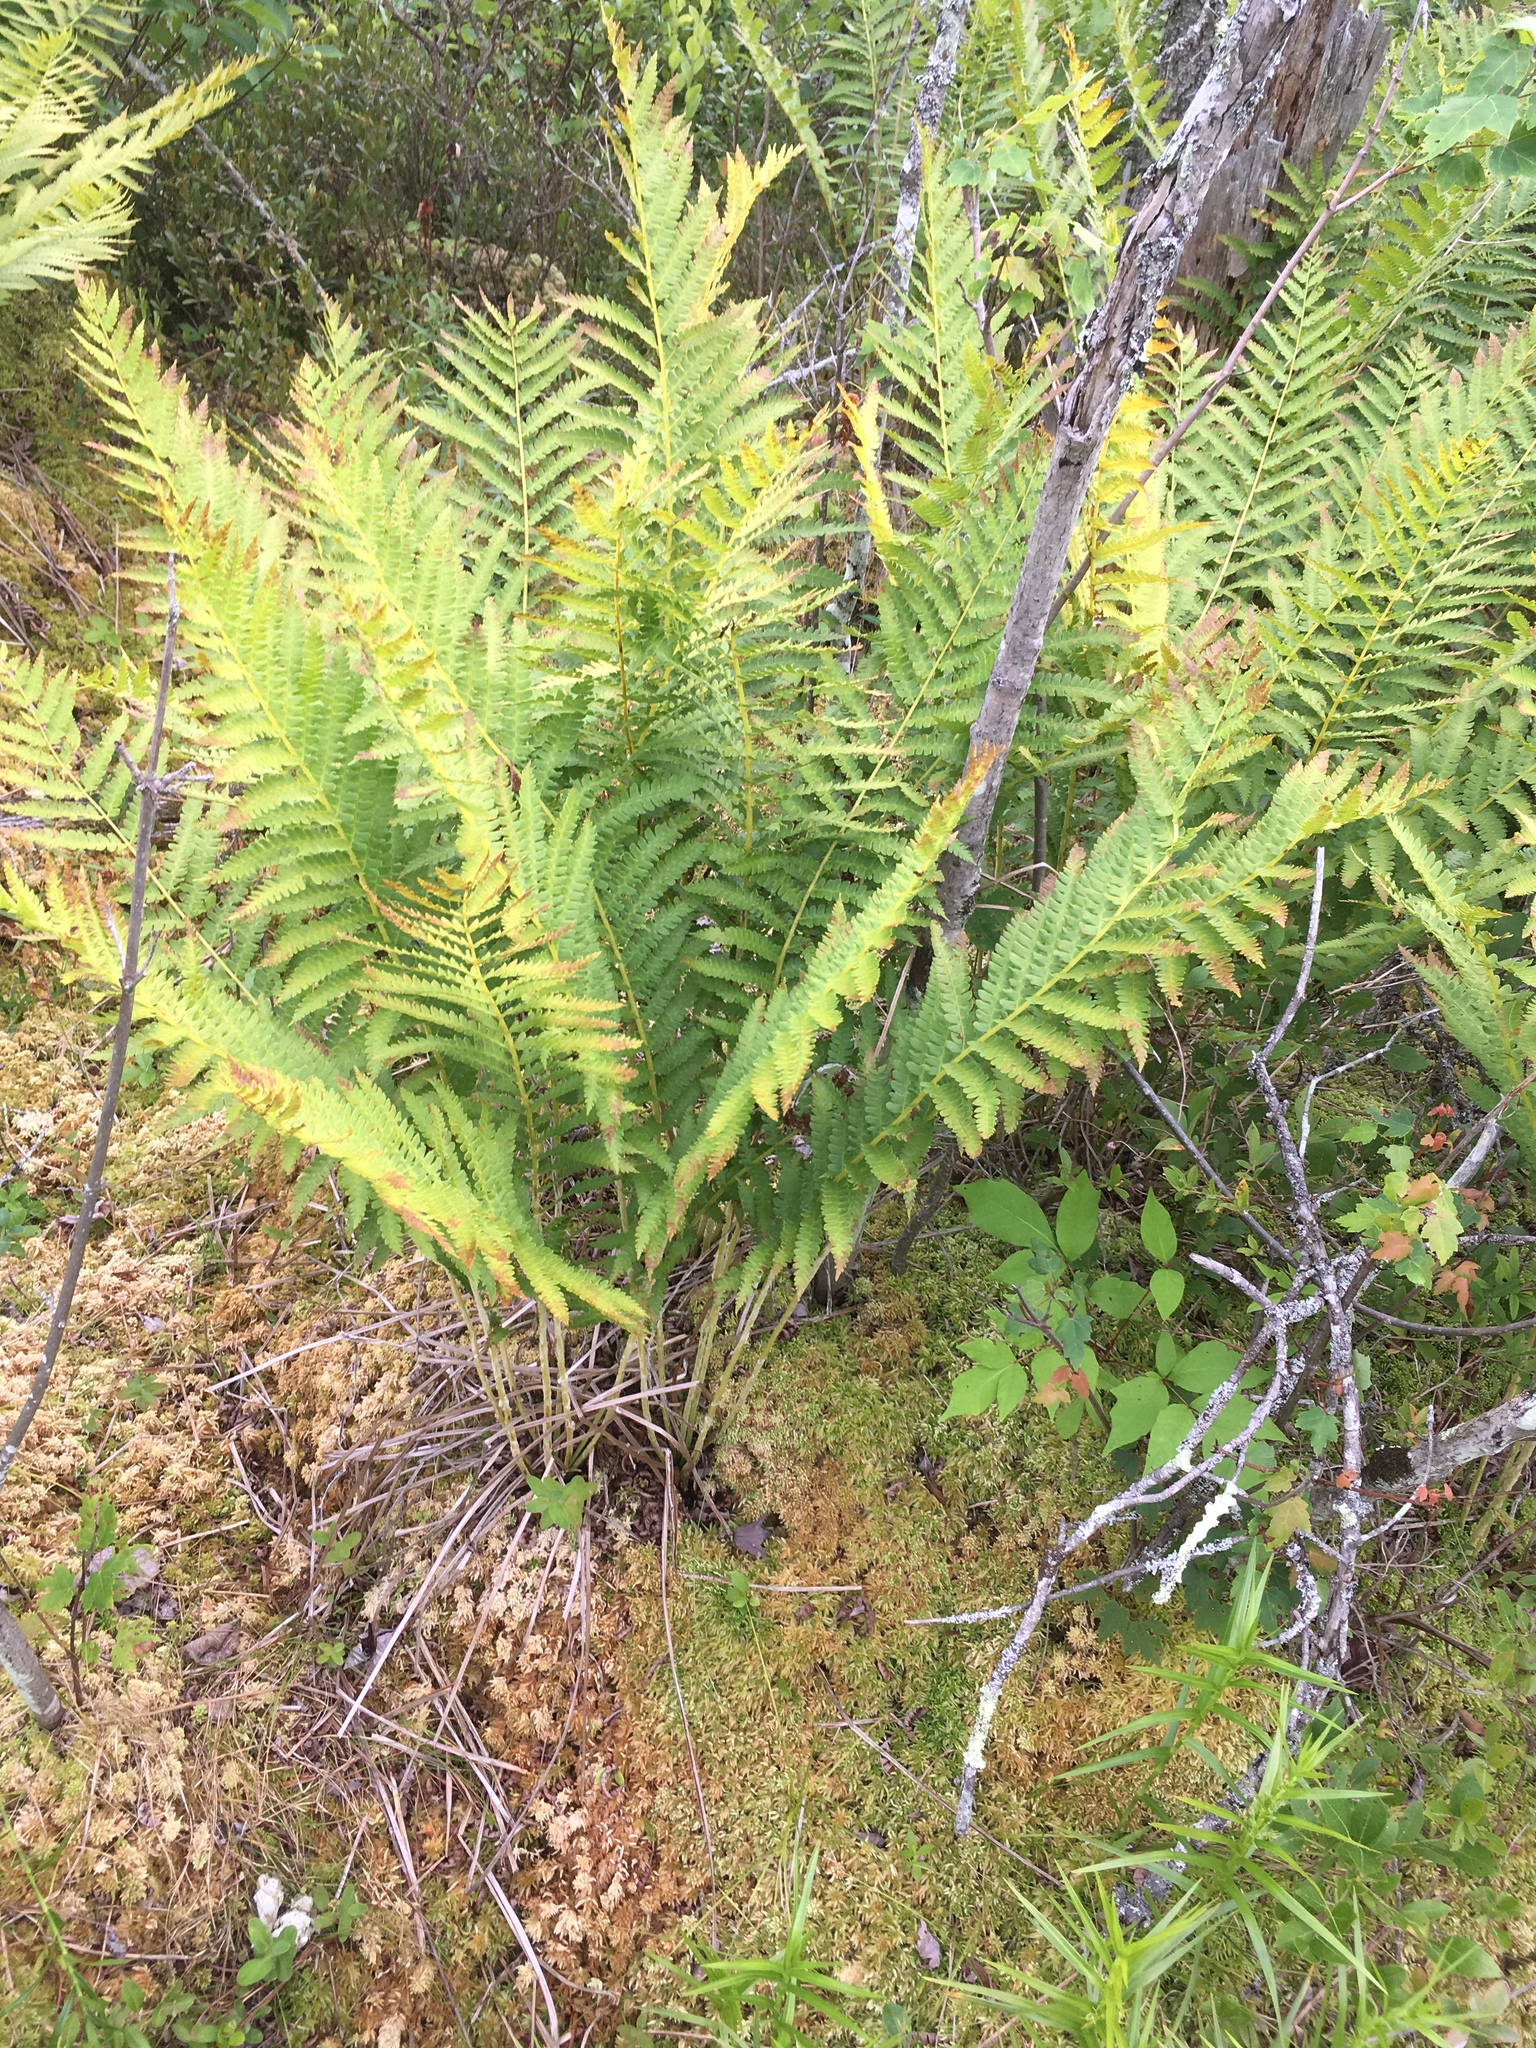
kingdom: Plantae
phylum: Tracheophyta
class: Polypodiopsida
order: Osmundales
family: Osmundaceae
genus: Osmundastrum
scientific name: Osmundastrum cinnamomeum
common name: Cinnamon fern
